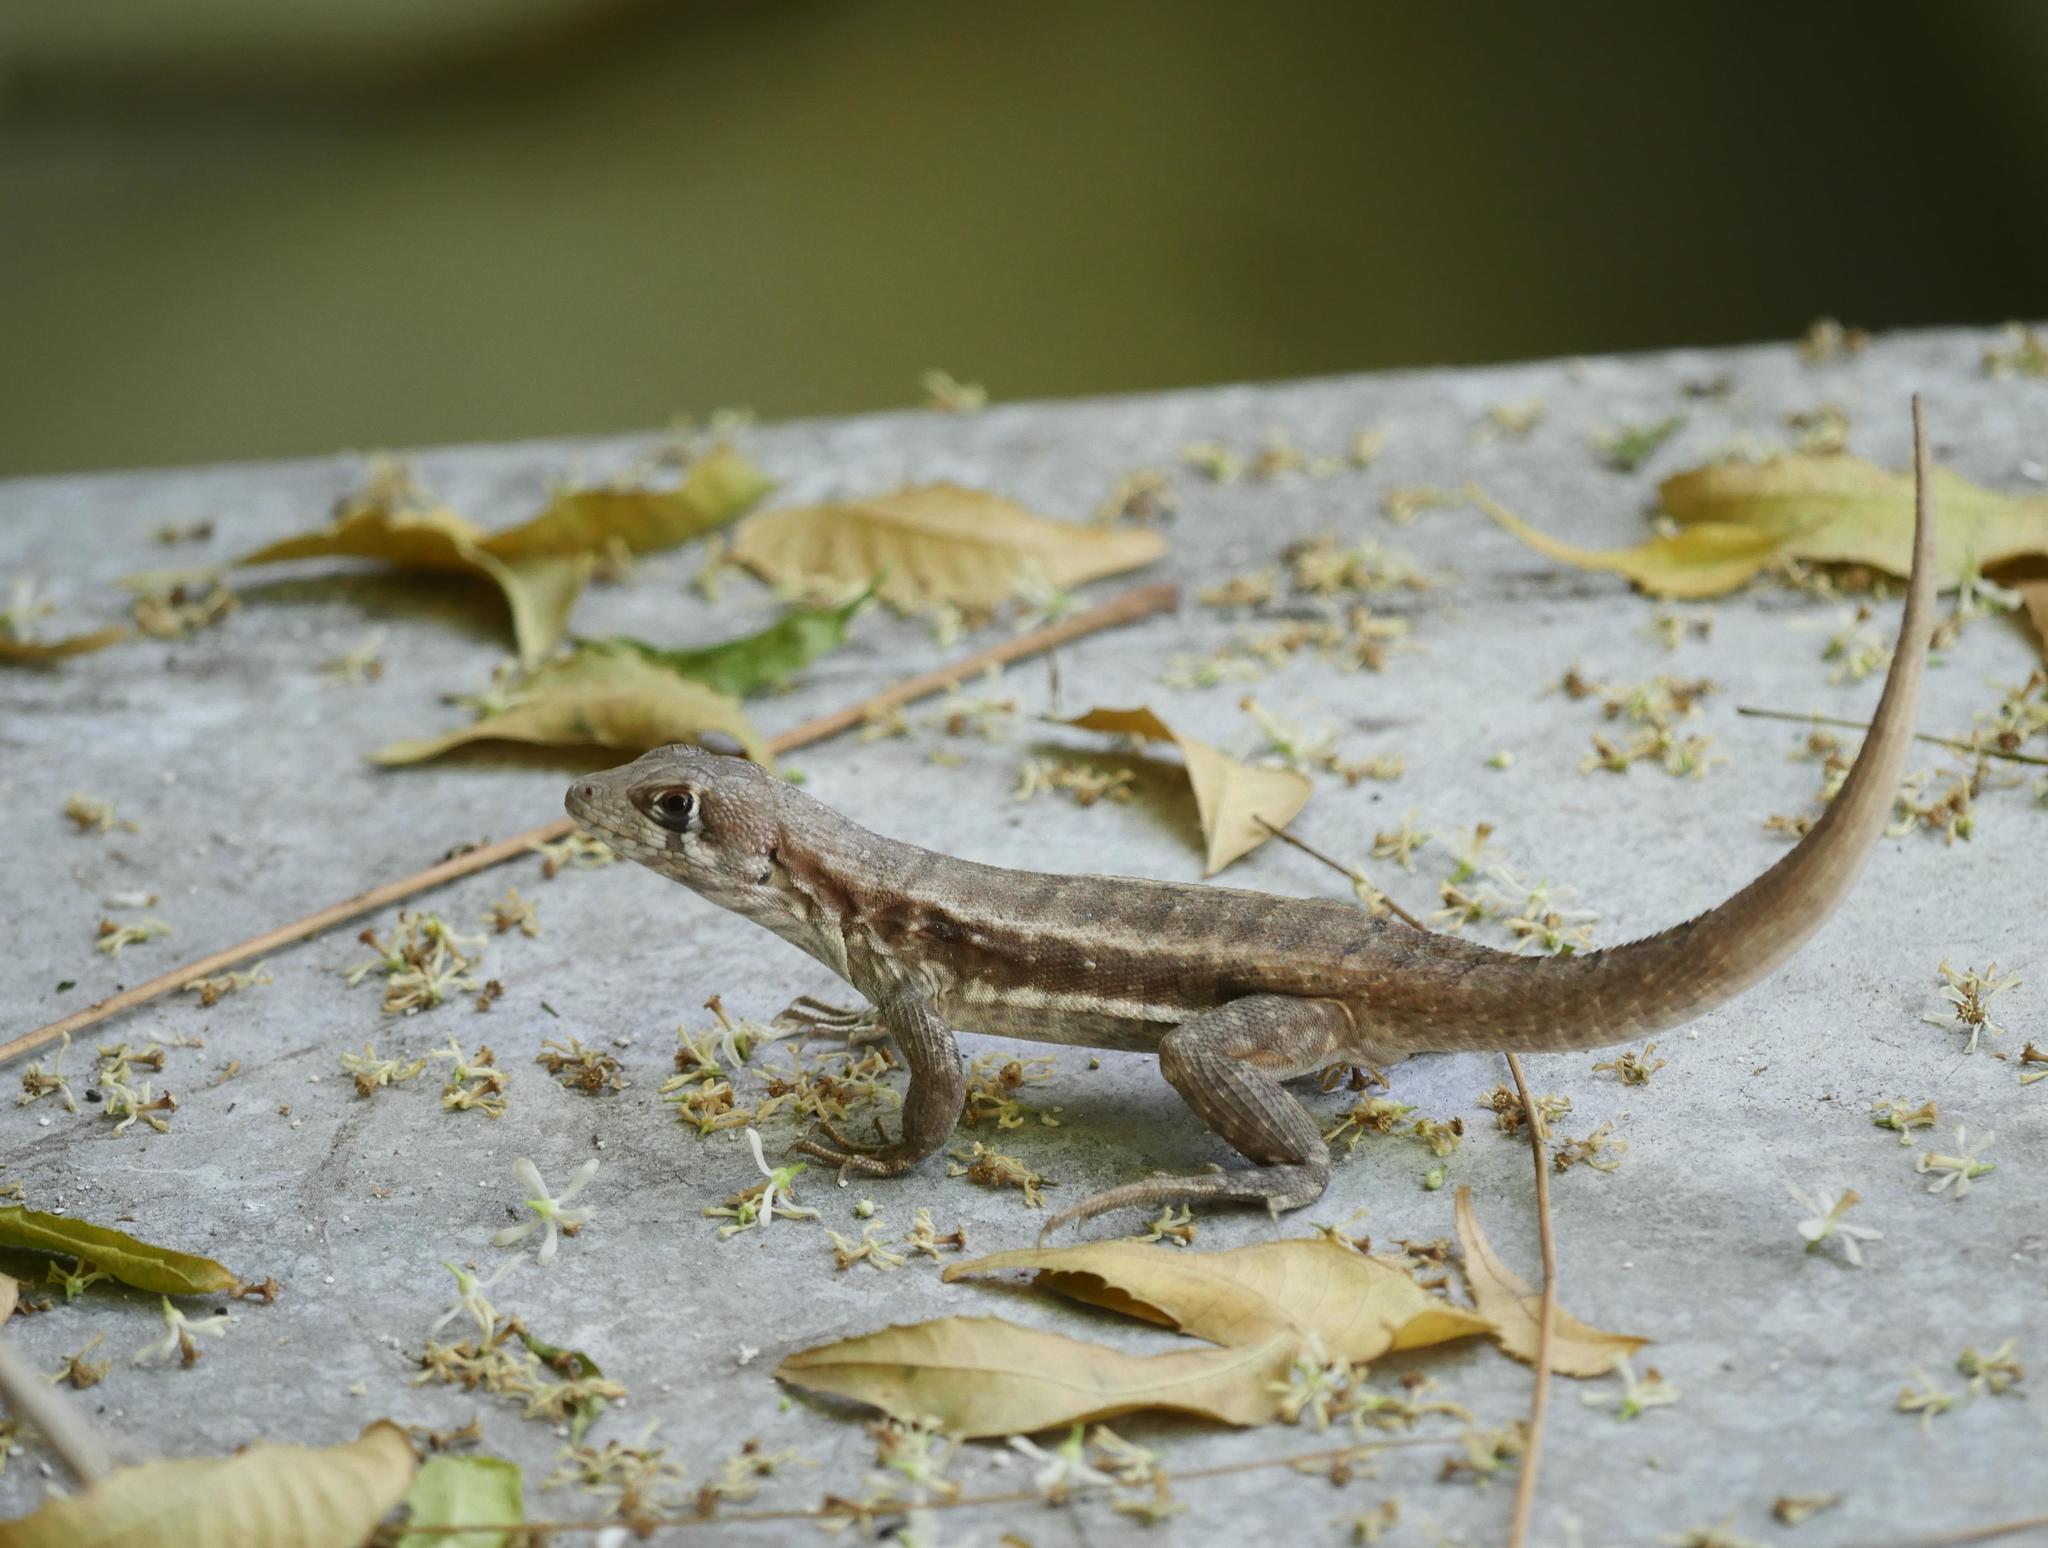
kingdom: Animalia
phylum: Chordata
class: Squamata
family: Leiocephalidae
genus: Leiocephalus
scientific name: Leiocephalus psammodromus
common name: Bastion cay curlytail lizard
